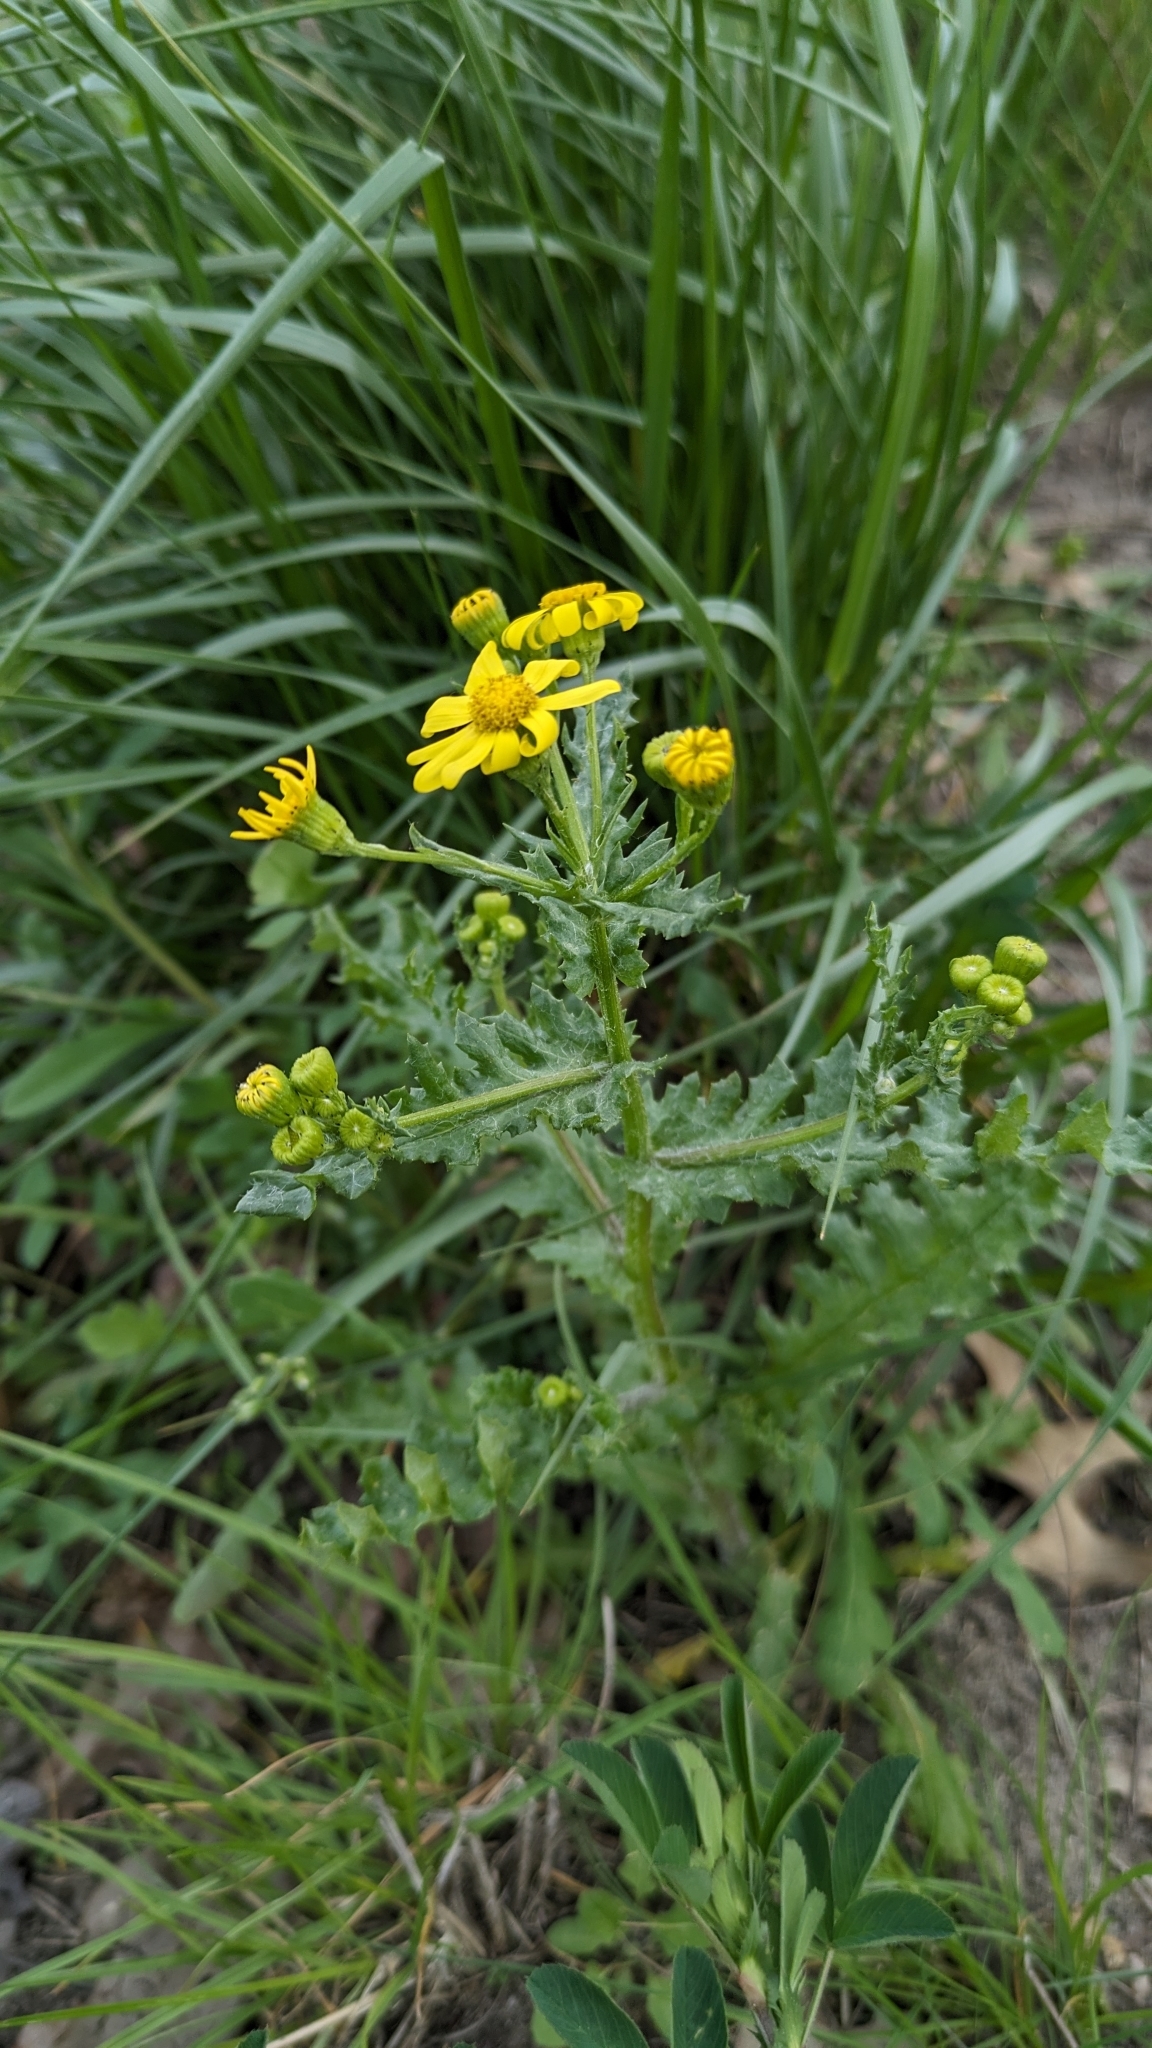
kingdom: Plantae
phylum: Tracheophyta
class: Magnoliopsida
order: Asterales
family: Asteraceae
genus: Senecio
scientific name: Senecio vernalis
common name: Eastern groundsel
